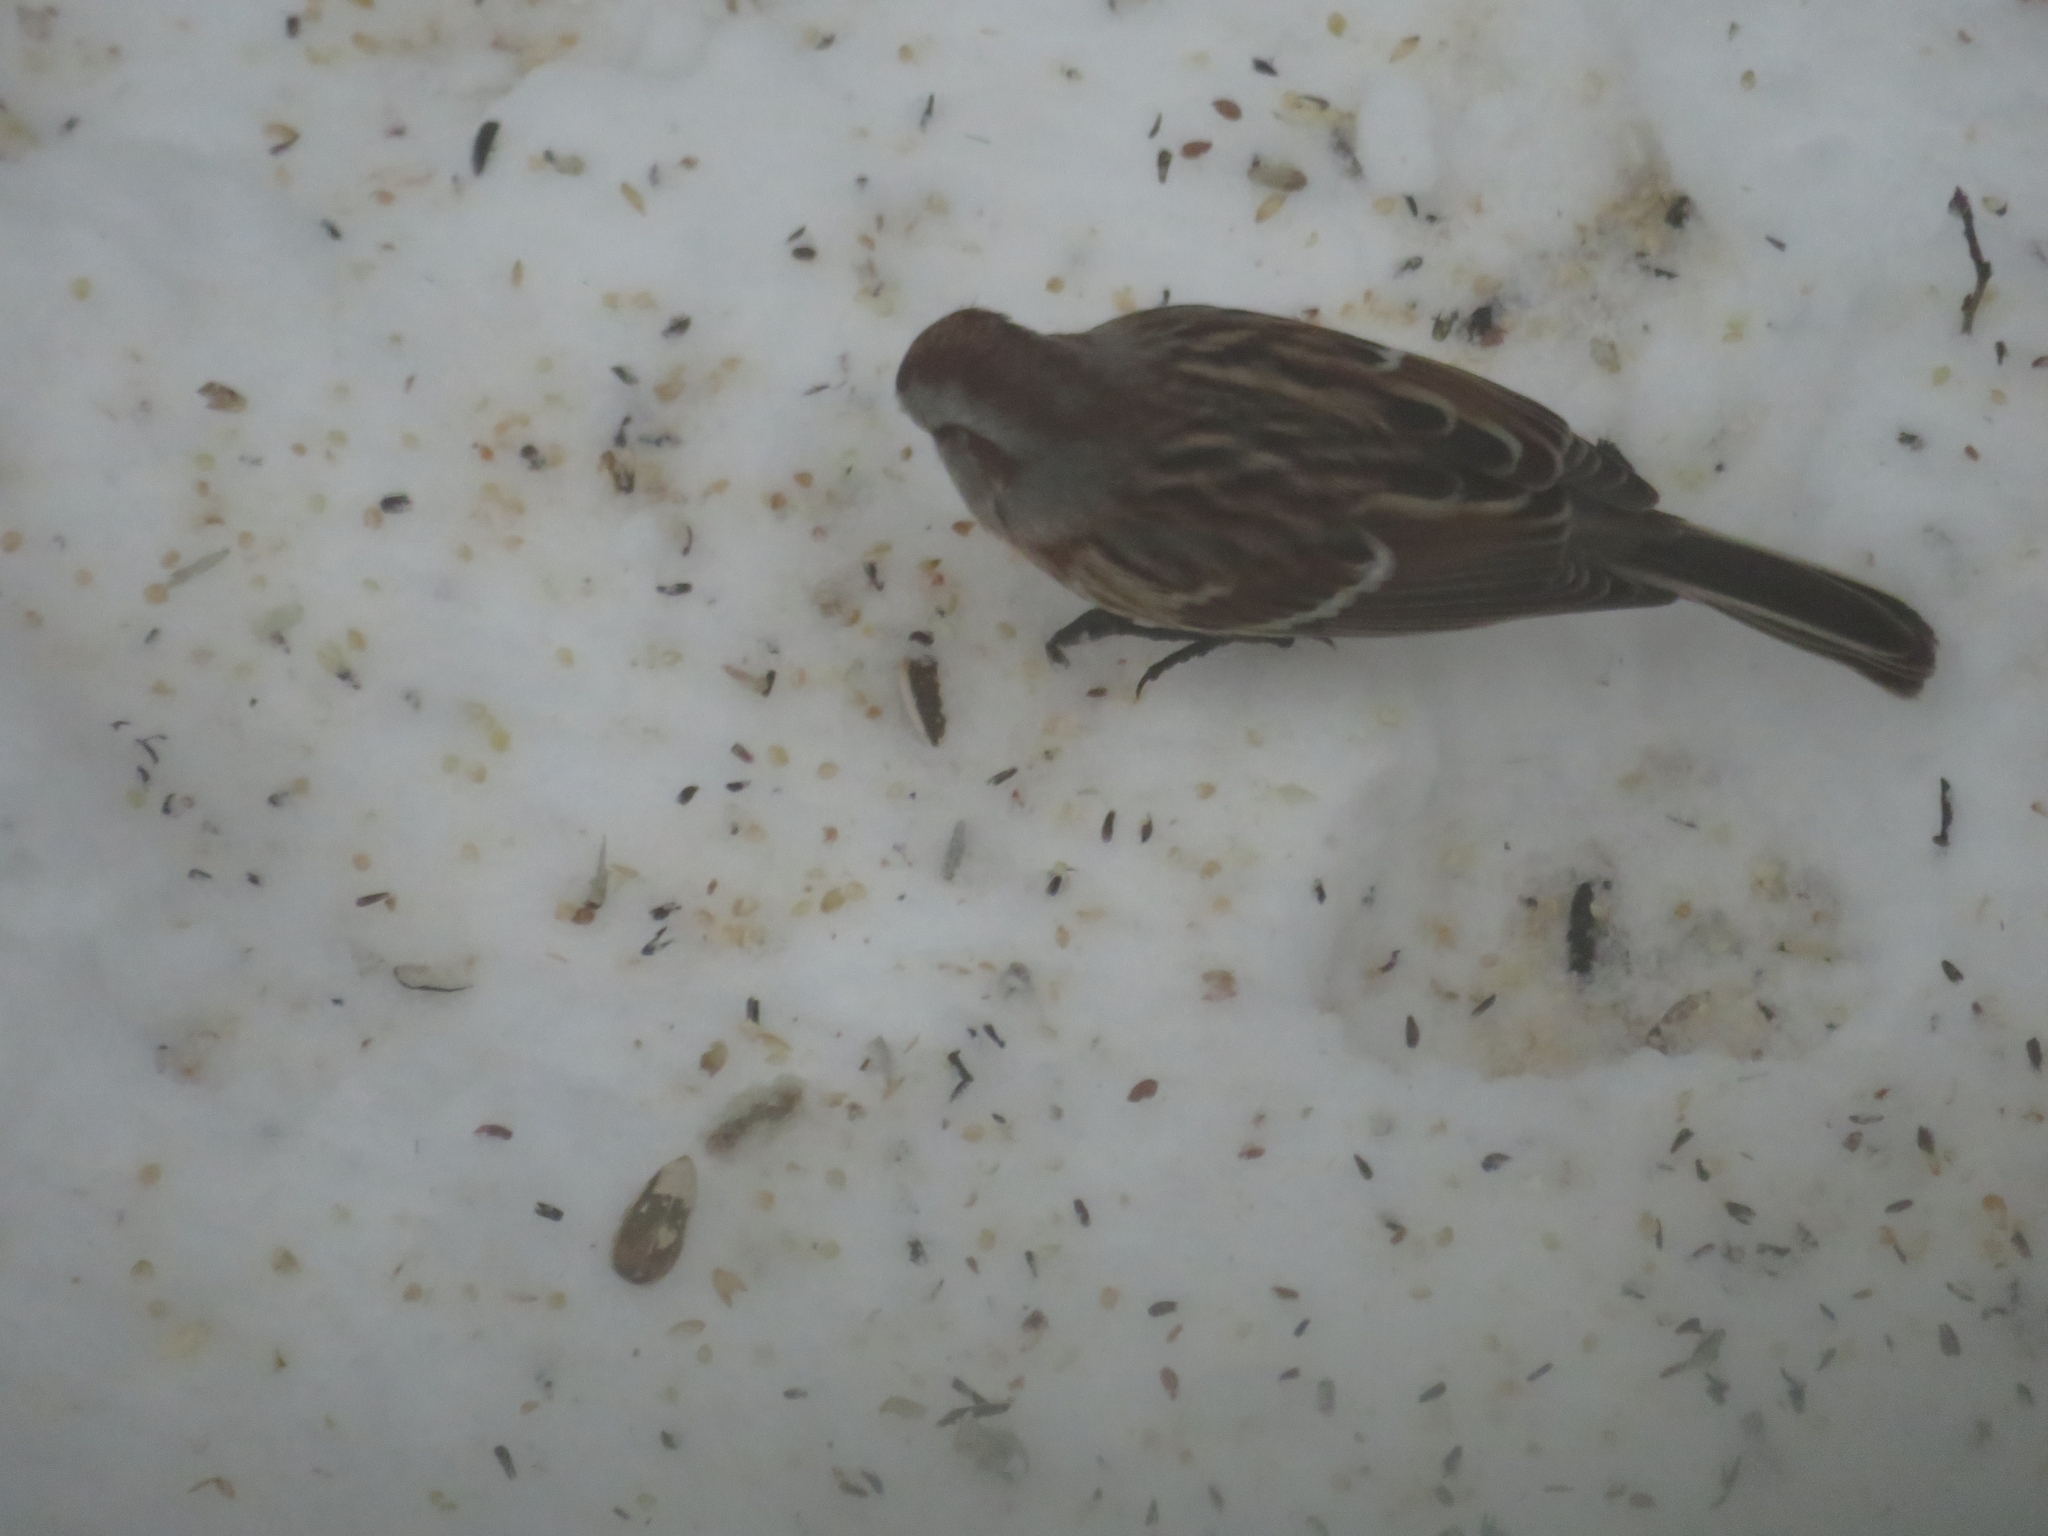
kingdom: Animalia
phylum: Chordata
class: Aves
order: Passeriformes
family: Passerellidae
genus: Spizelloides
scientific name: Spizelloides arborea
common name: American tree sparrow
